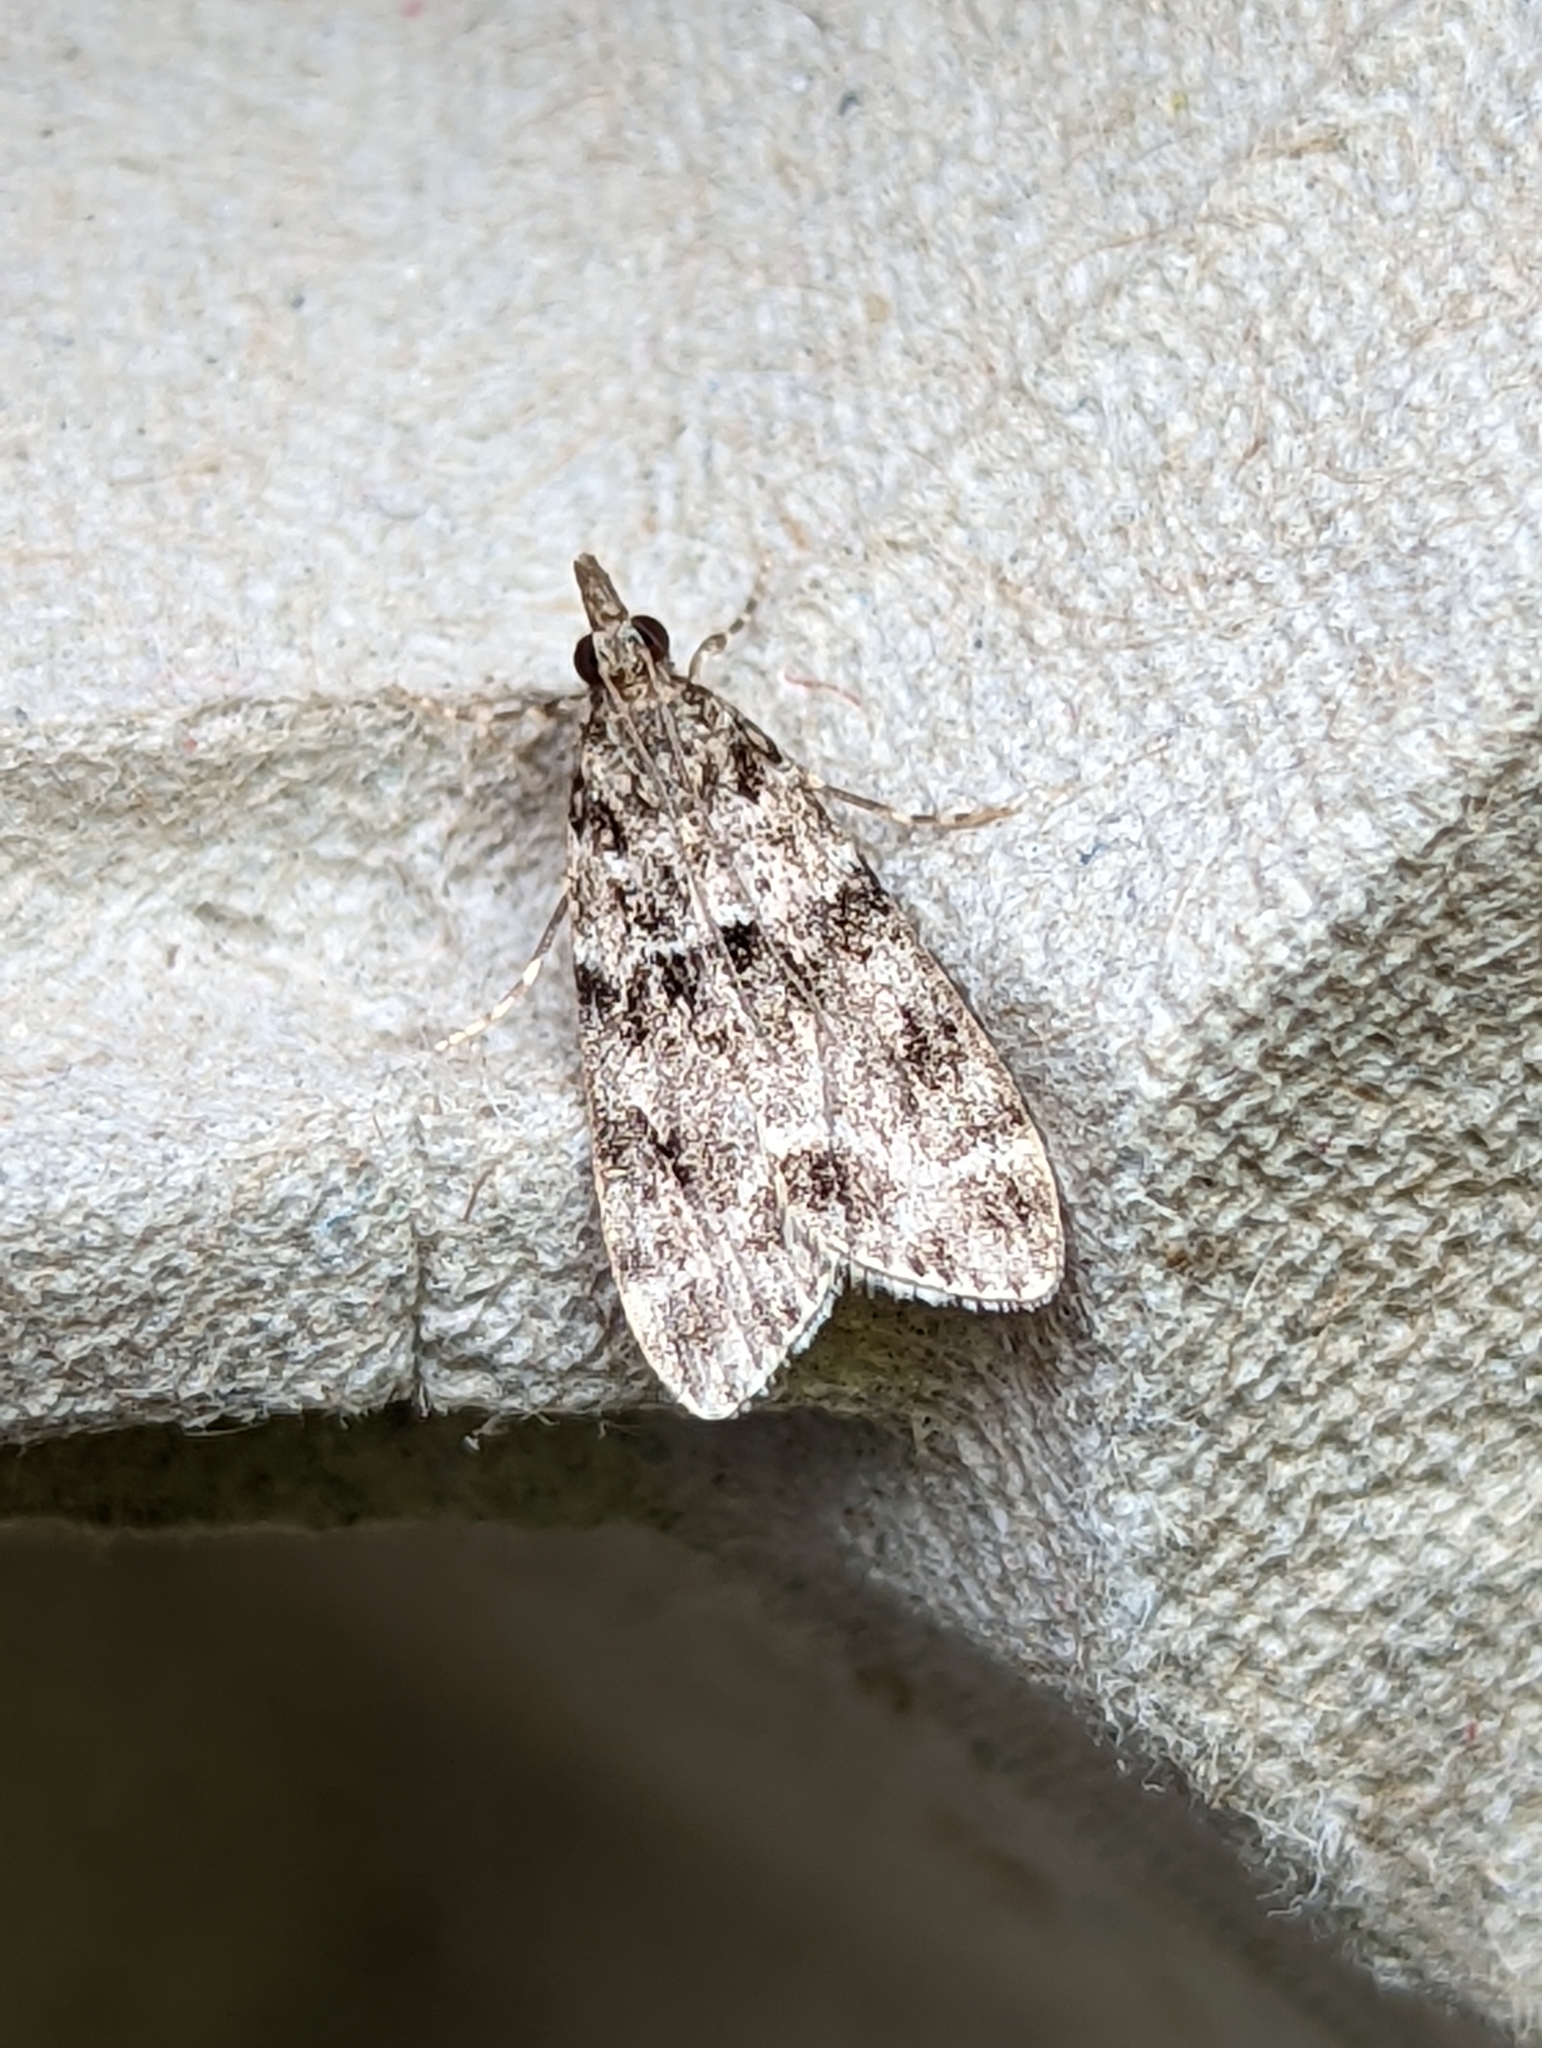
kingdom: Animalia
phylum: Arthropoda
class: Insecta
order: Lepidoptera
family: Crambidae
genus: Eudonia
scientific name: Eudonia mercurella
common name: Small grey
